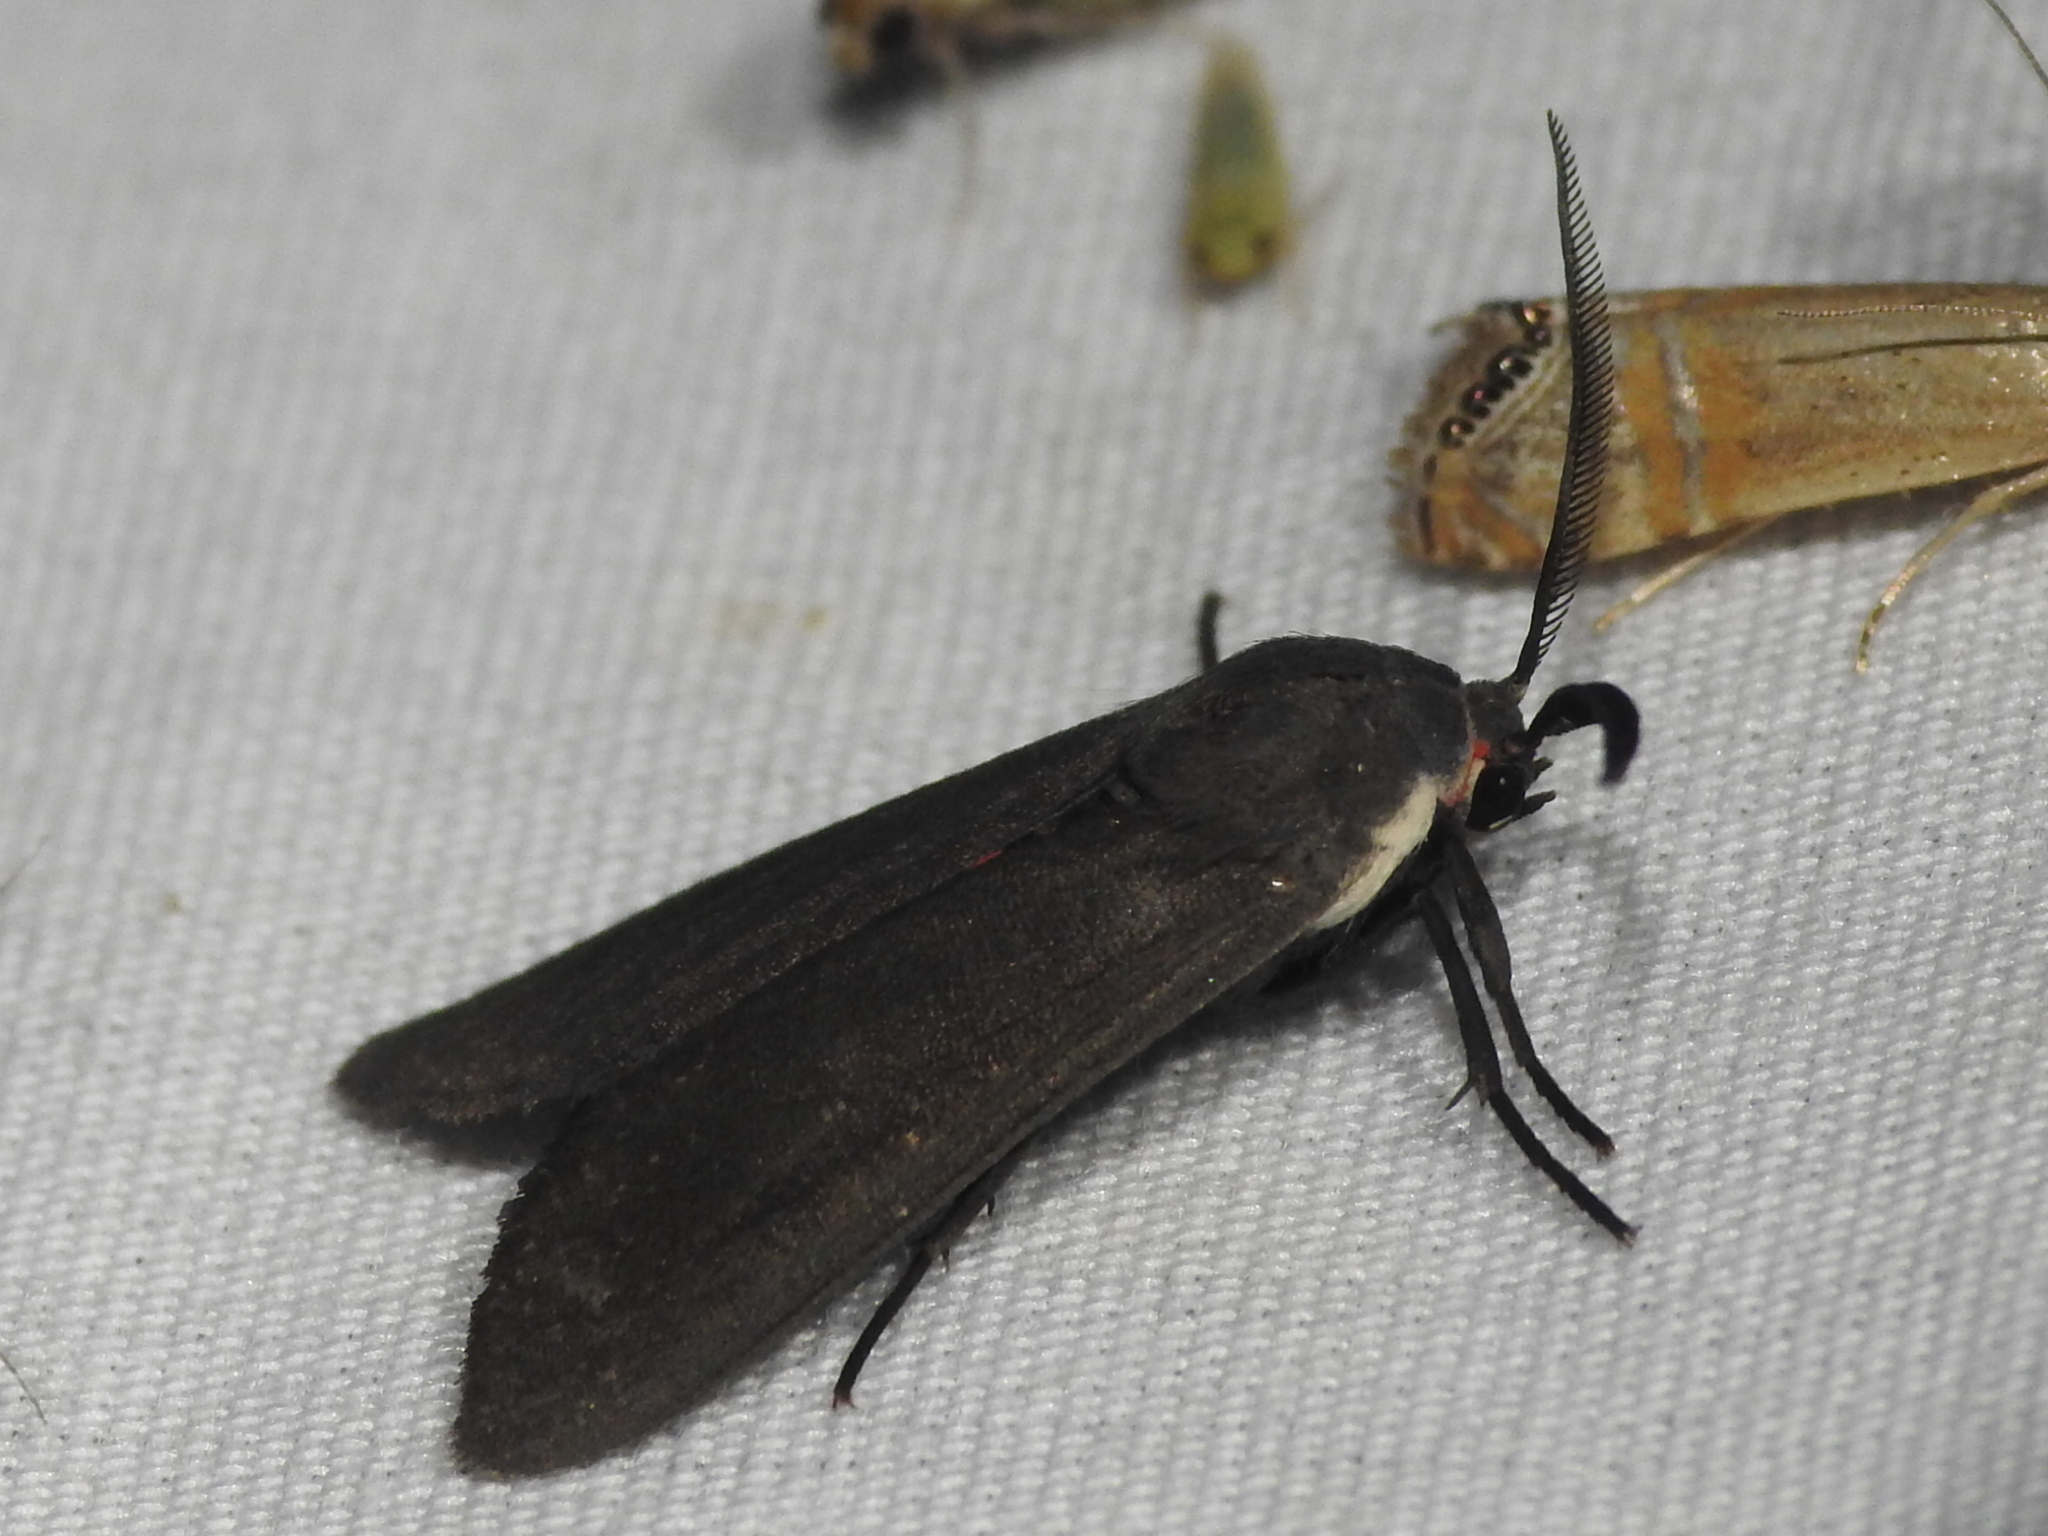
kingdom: Animalia
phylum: Arthropoda
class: Insecta
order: Lepidoptera
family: Erebidae
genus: Euchaetes
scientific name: Euchaetes bolteri
